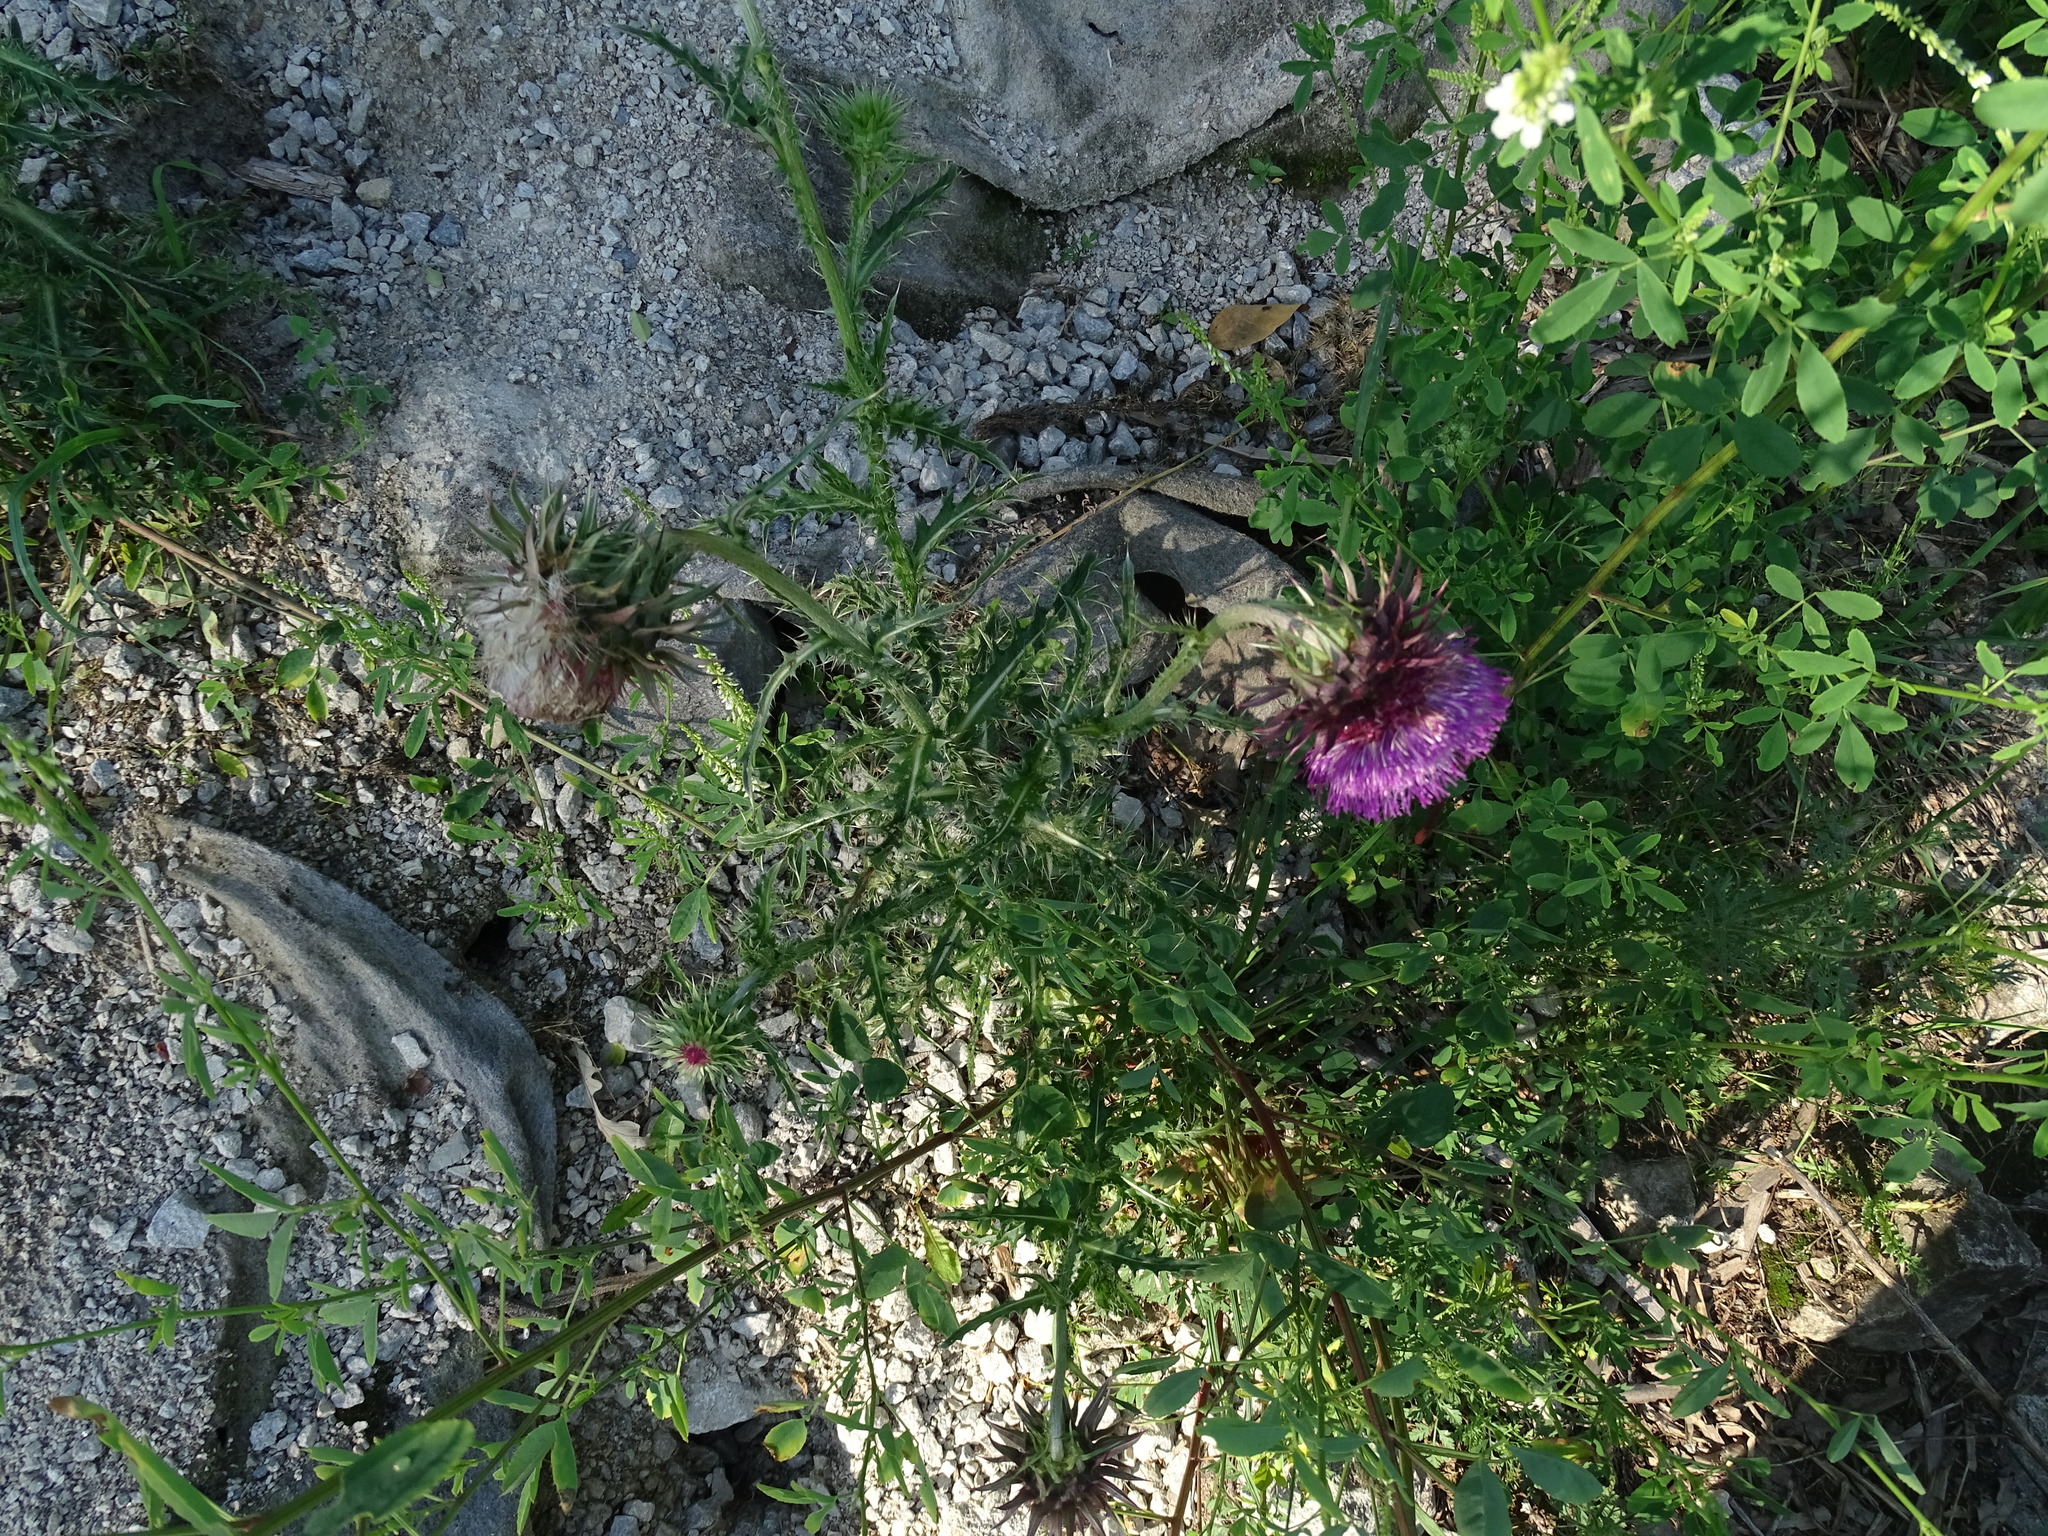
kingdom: Plantae
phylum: Tracheophyta
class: Magnoliopsida
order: Asterales
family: Asteraceae
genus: Carduus
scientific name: Carduus nutans
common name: Musk thistle
